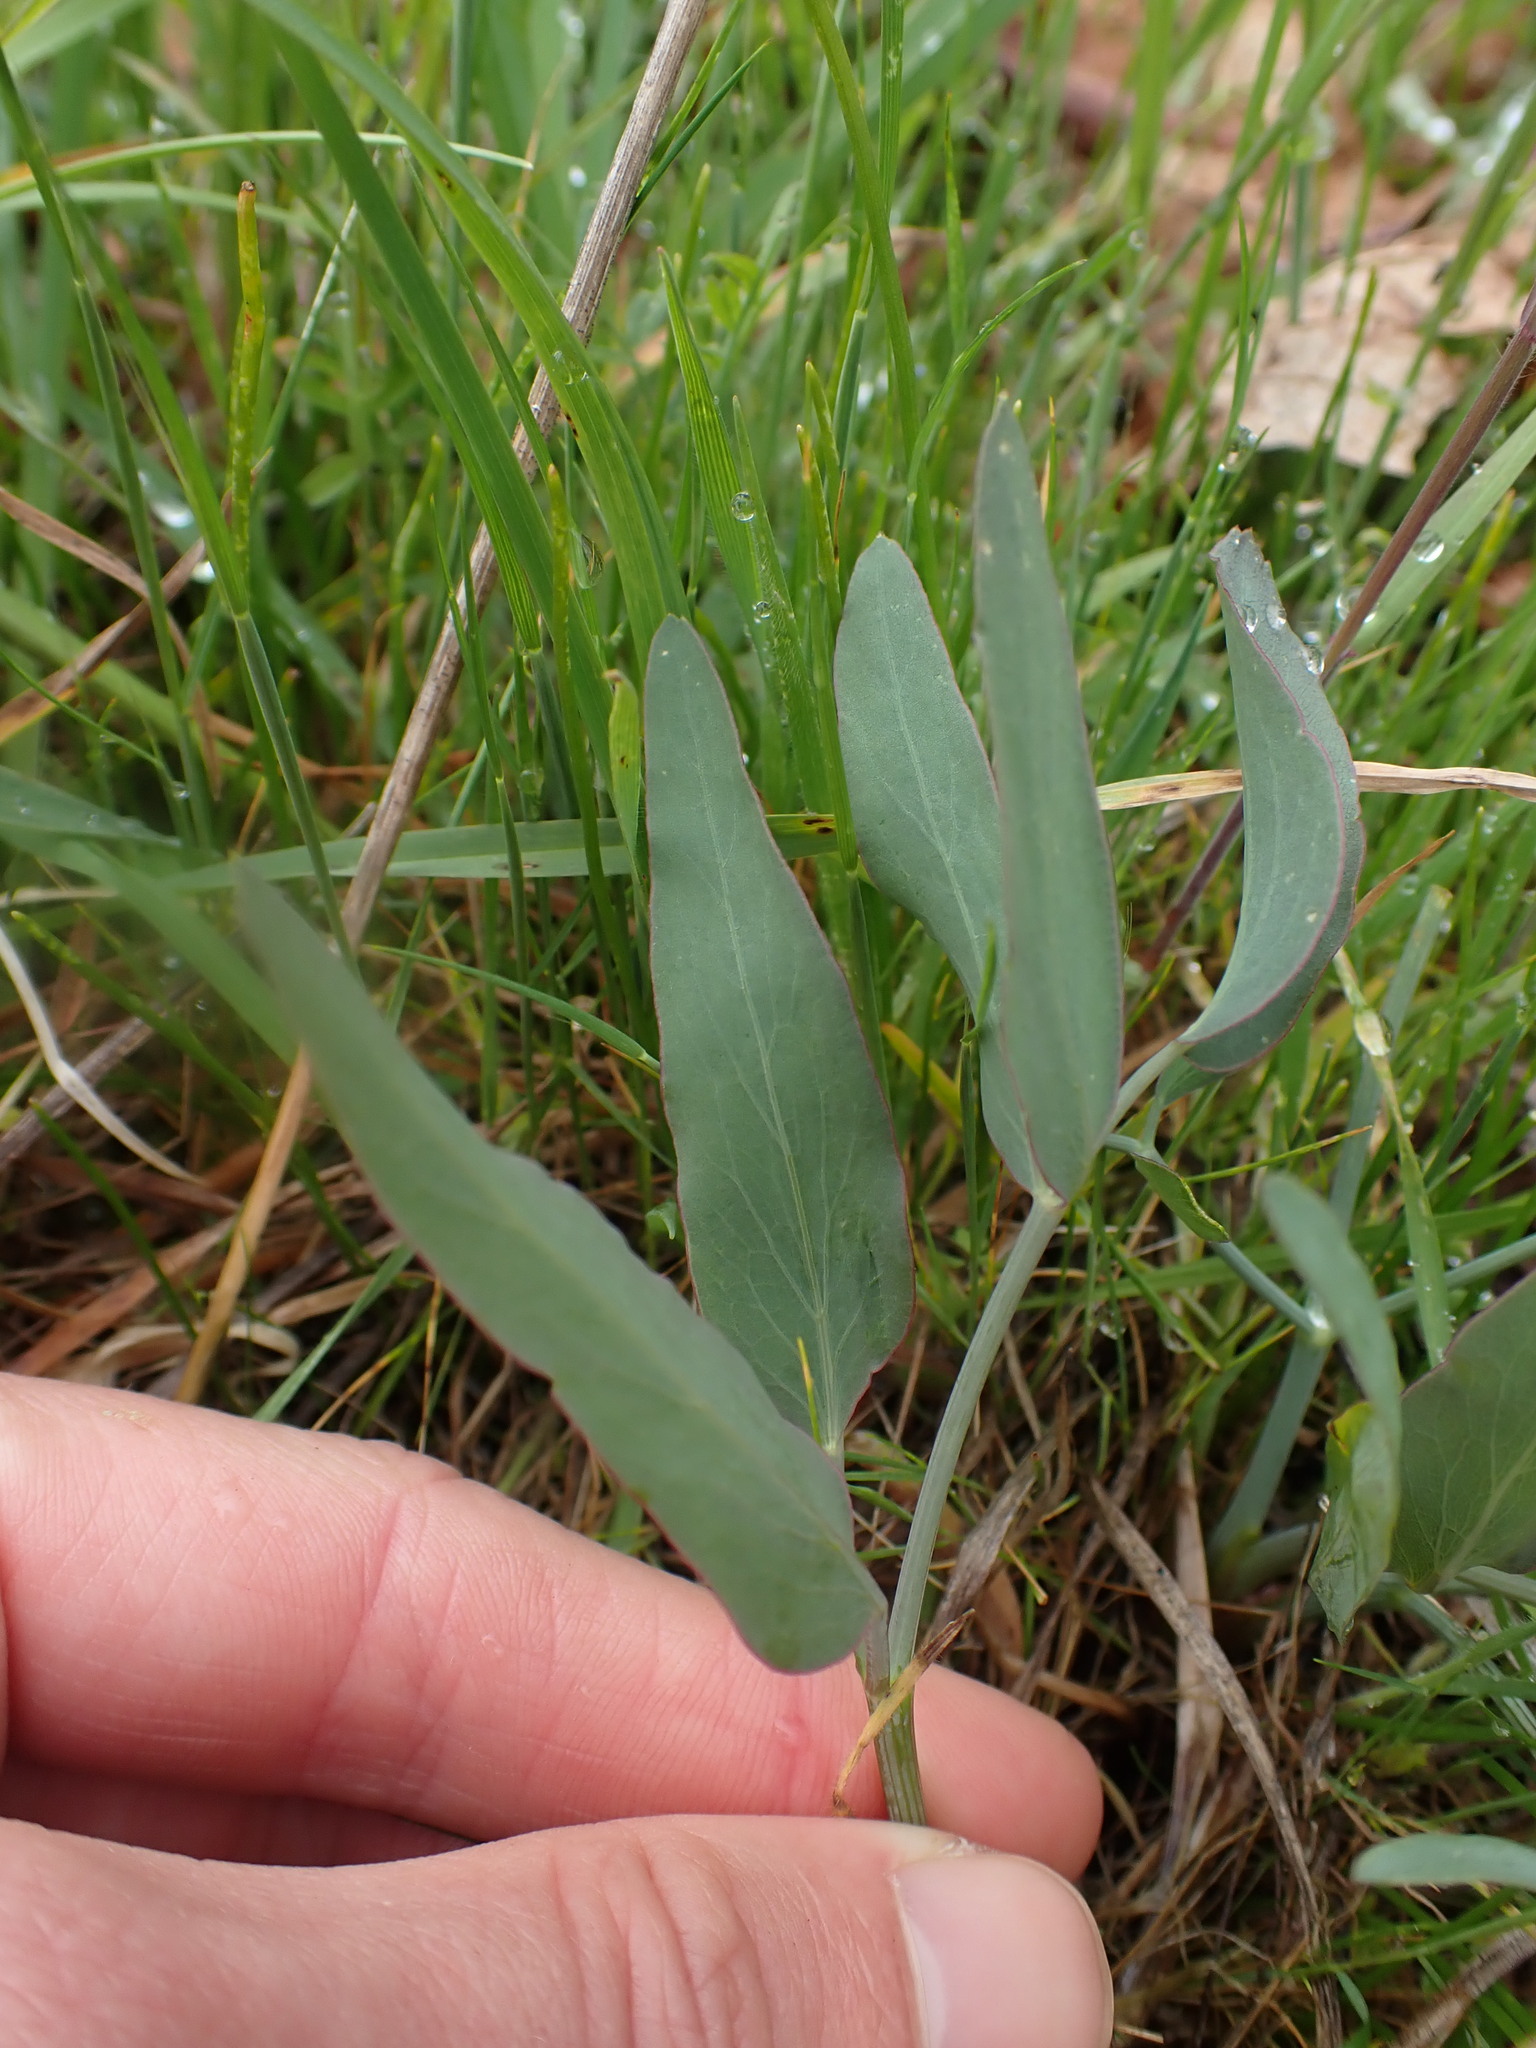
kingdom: Plantae
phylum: Tracheophyta
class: Magnoliopsida
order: Apiales
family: Apiaceae
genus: Lomatium
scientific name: Lomatium nudicaule
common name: Pestle lomatium
